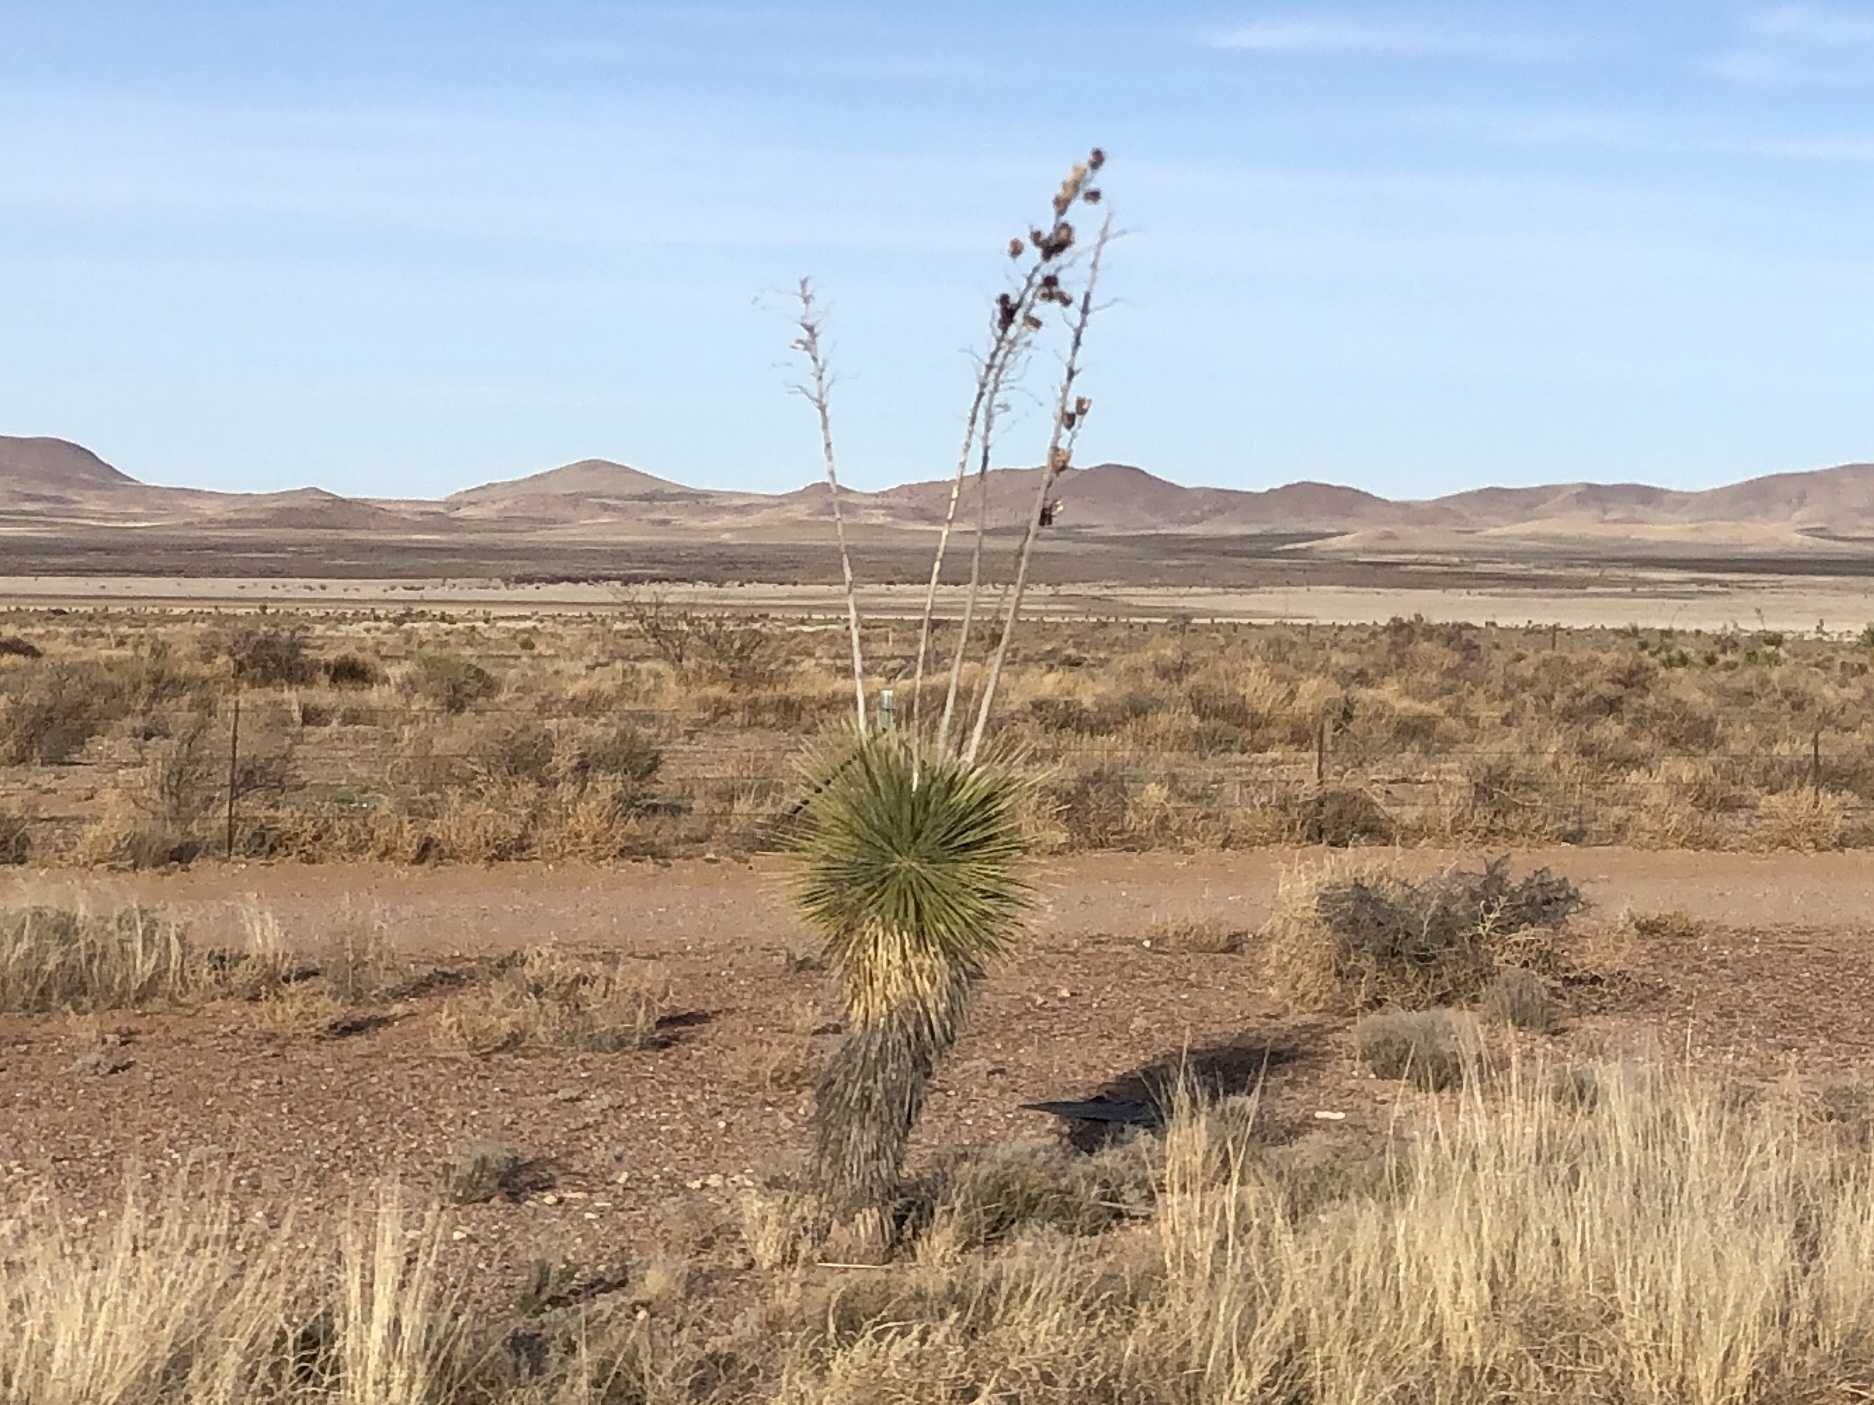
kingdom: Plantae
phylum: Tracheophyta
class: Liliopsida
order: Asparagales
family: Asparagaceae
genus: Yucca
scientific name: Yucca elata
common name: Palmella
